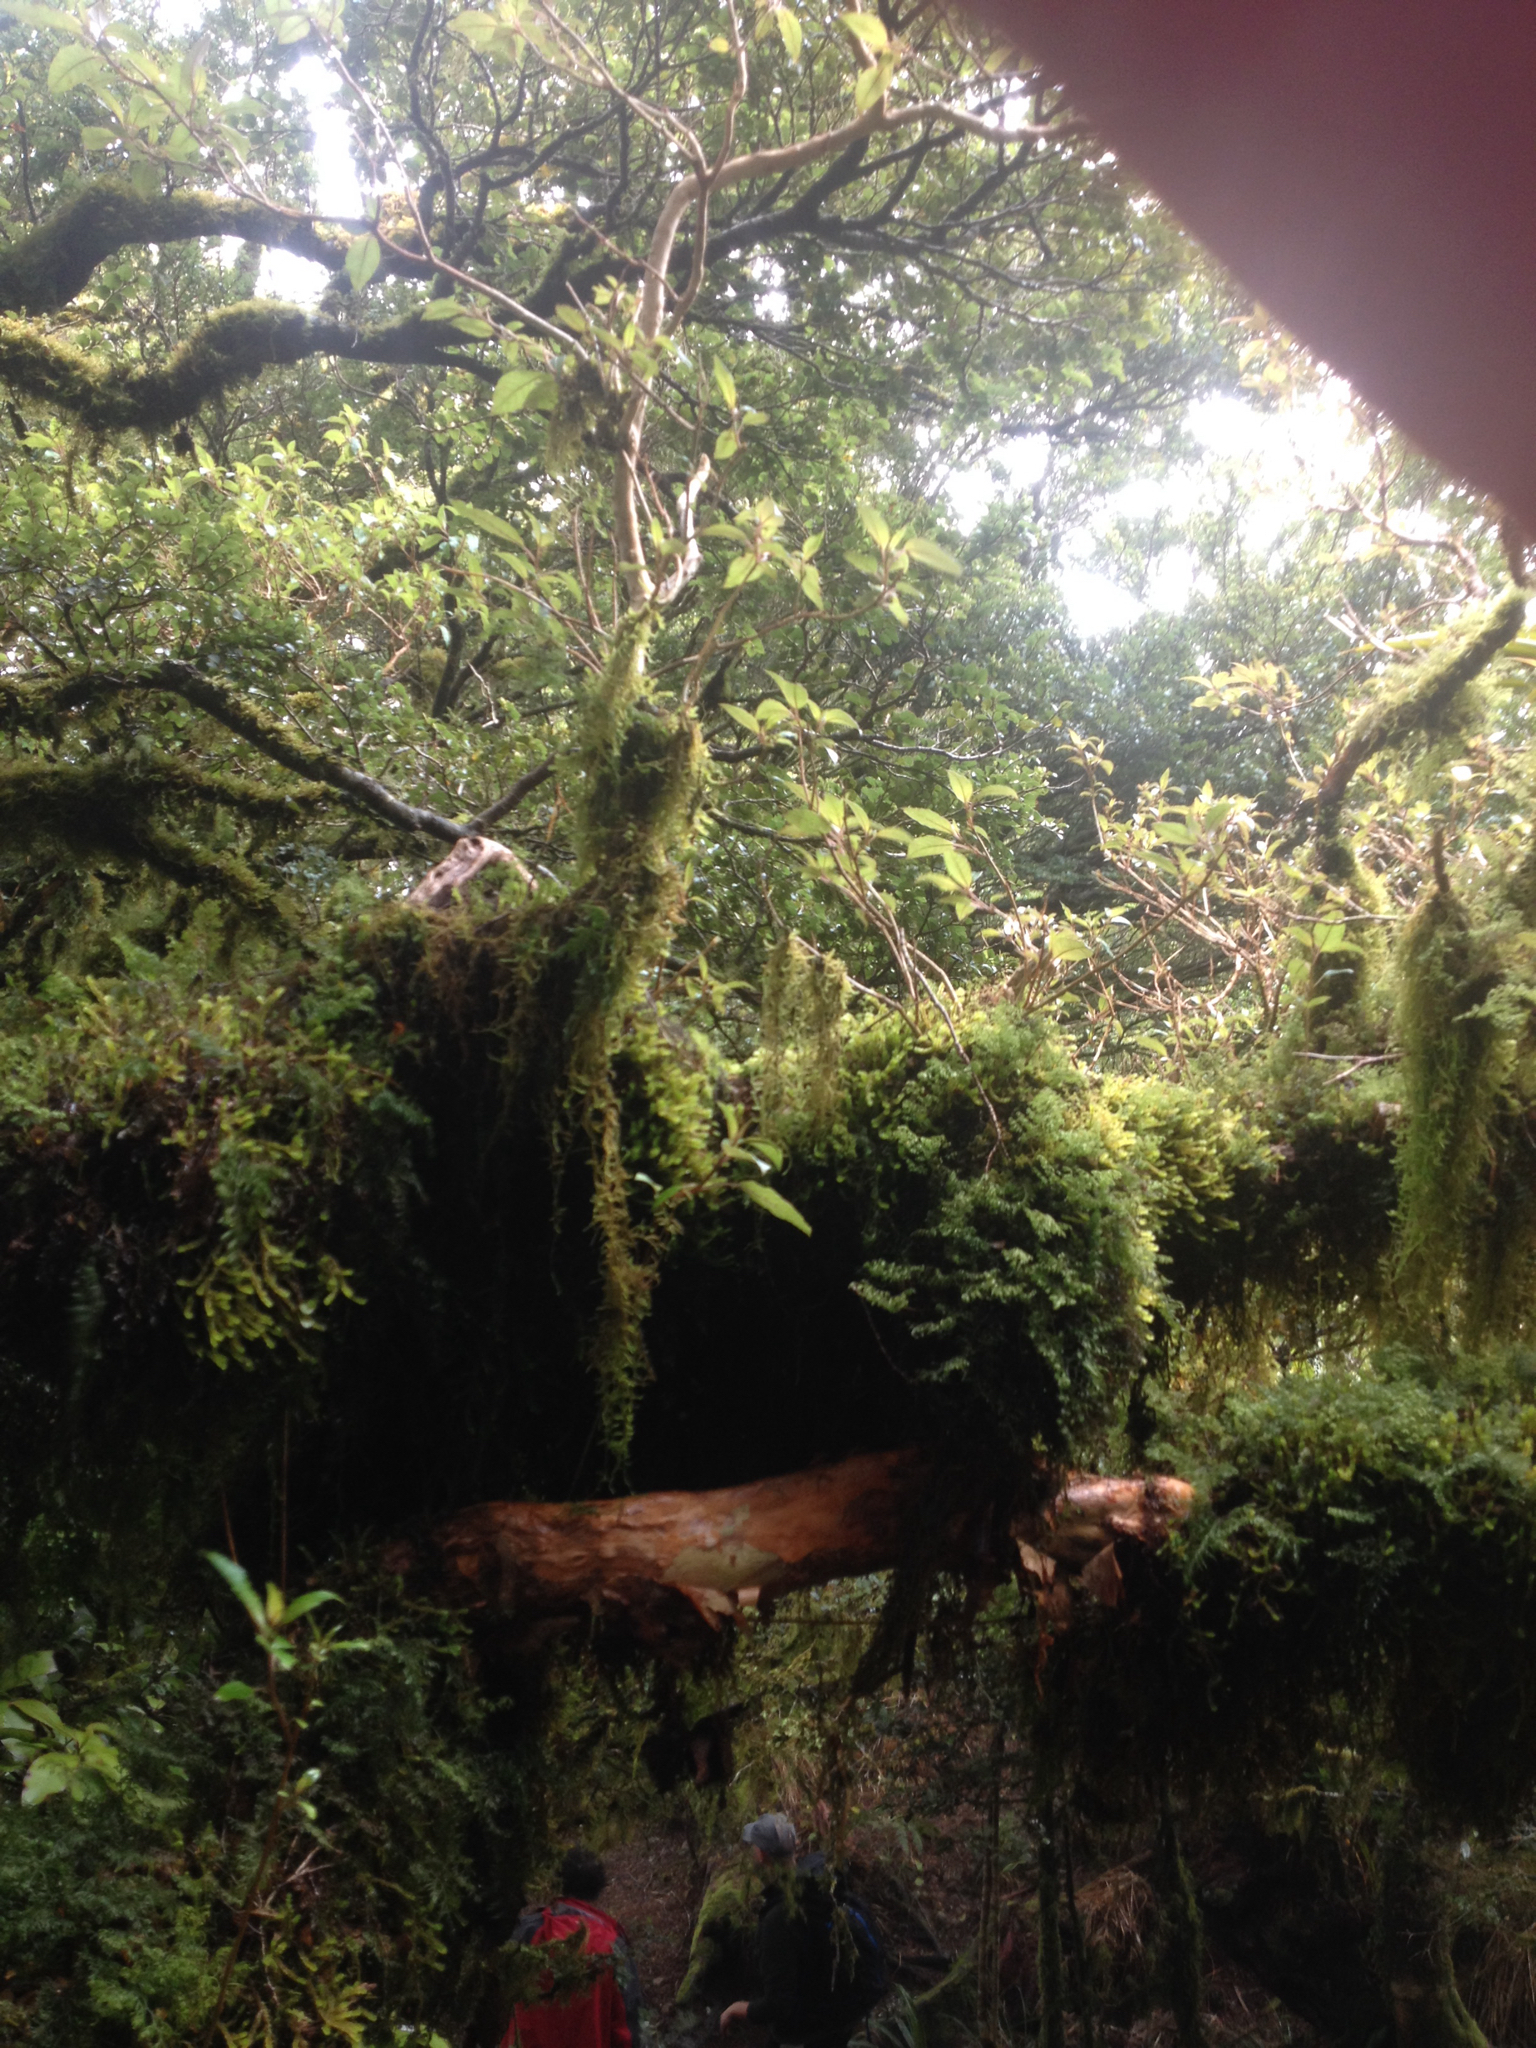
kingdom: Plantae
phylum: Tracheophyta
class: Magnoliopsida
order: Myrtales
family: Onagraceae
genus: Fuchsia
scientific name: Fuchsia excorticata
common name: Tree fuchsia
